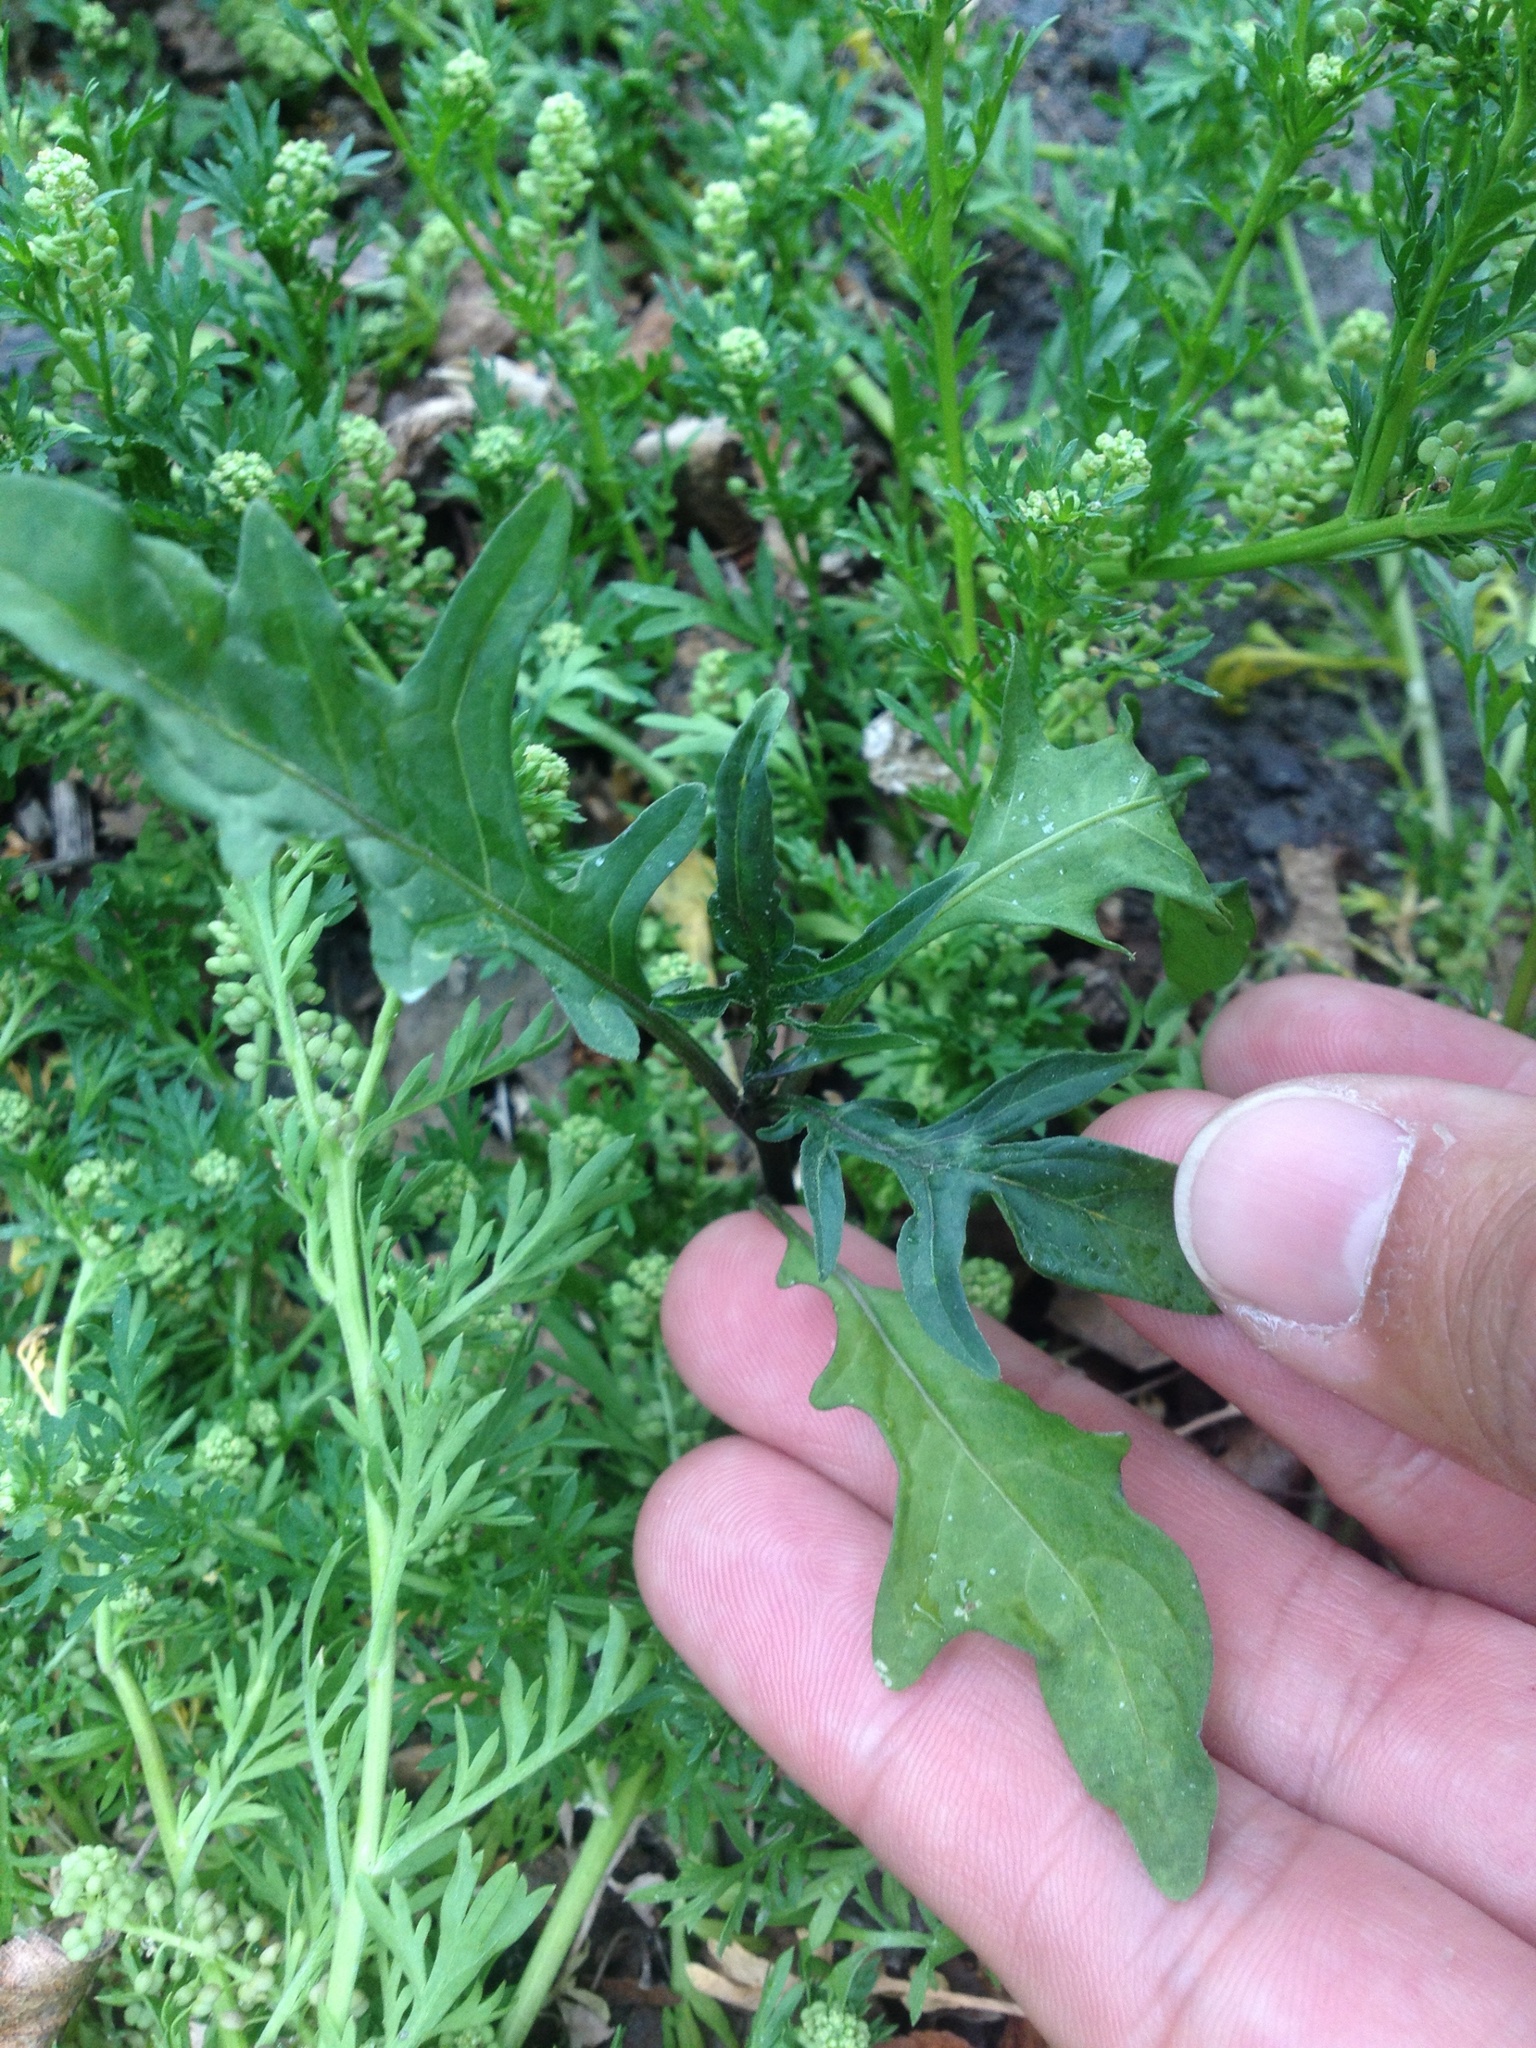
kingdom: Plantae
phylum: Tracheophyta
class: Magnoliopsida
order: Solanales
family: Solanaceae
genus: Solanum
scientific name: Solanum laciniatum
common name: Kangaroo-apple
